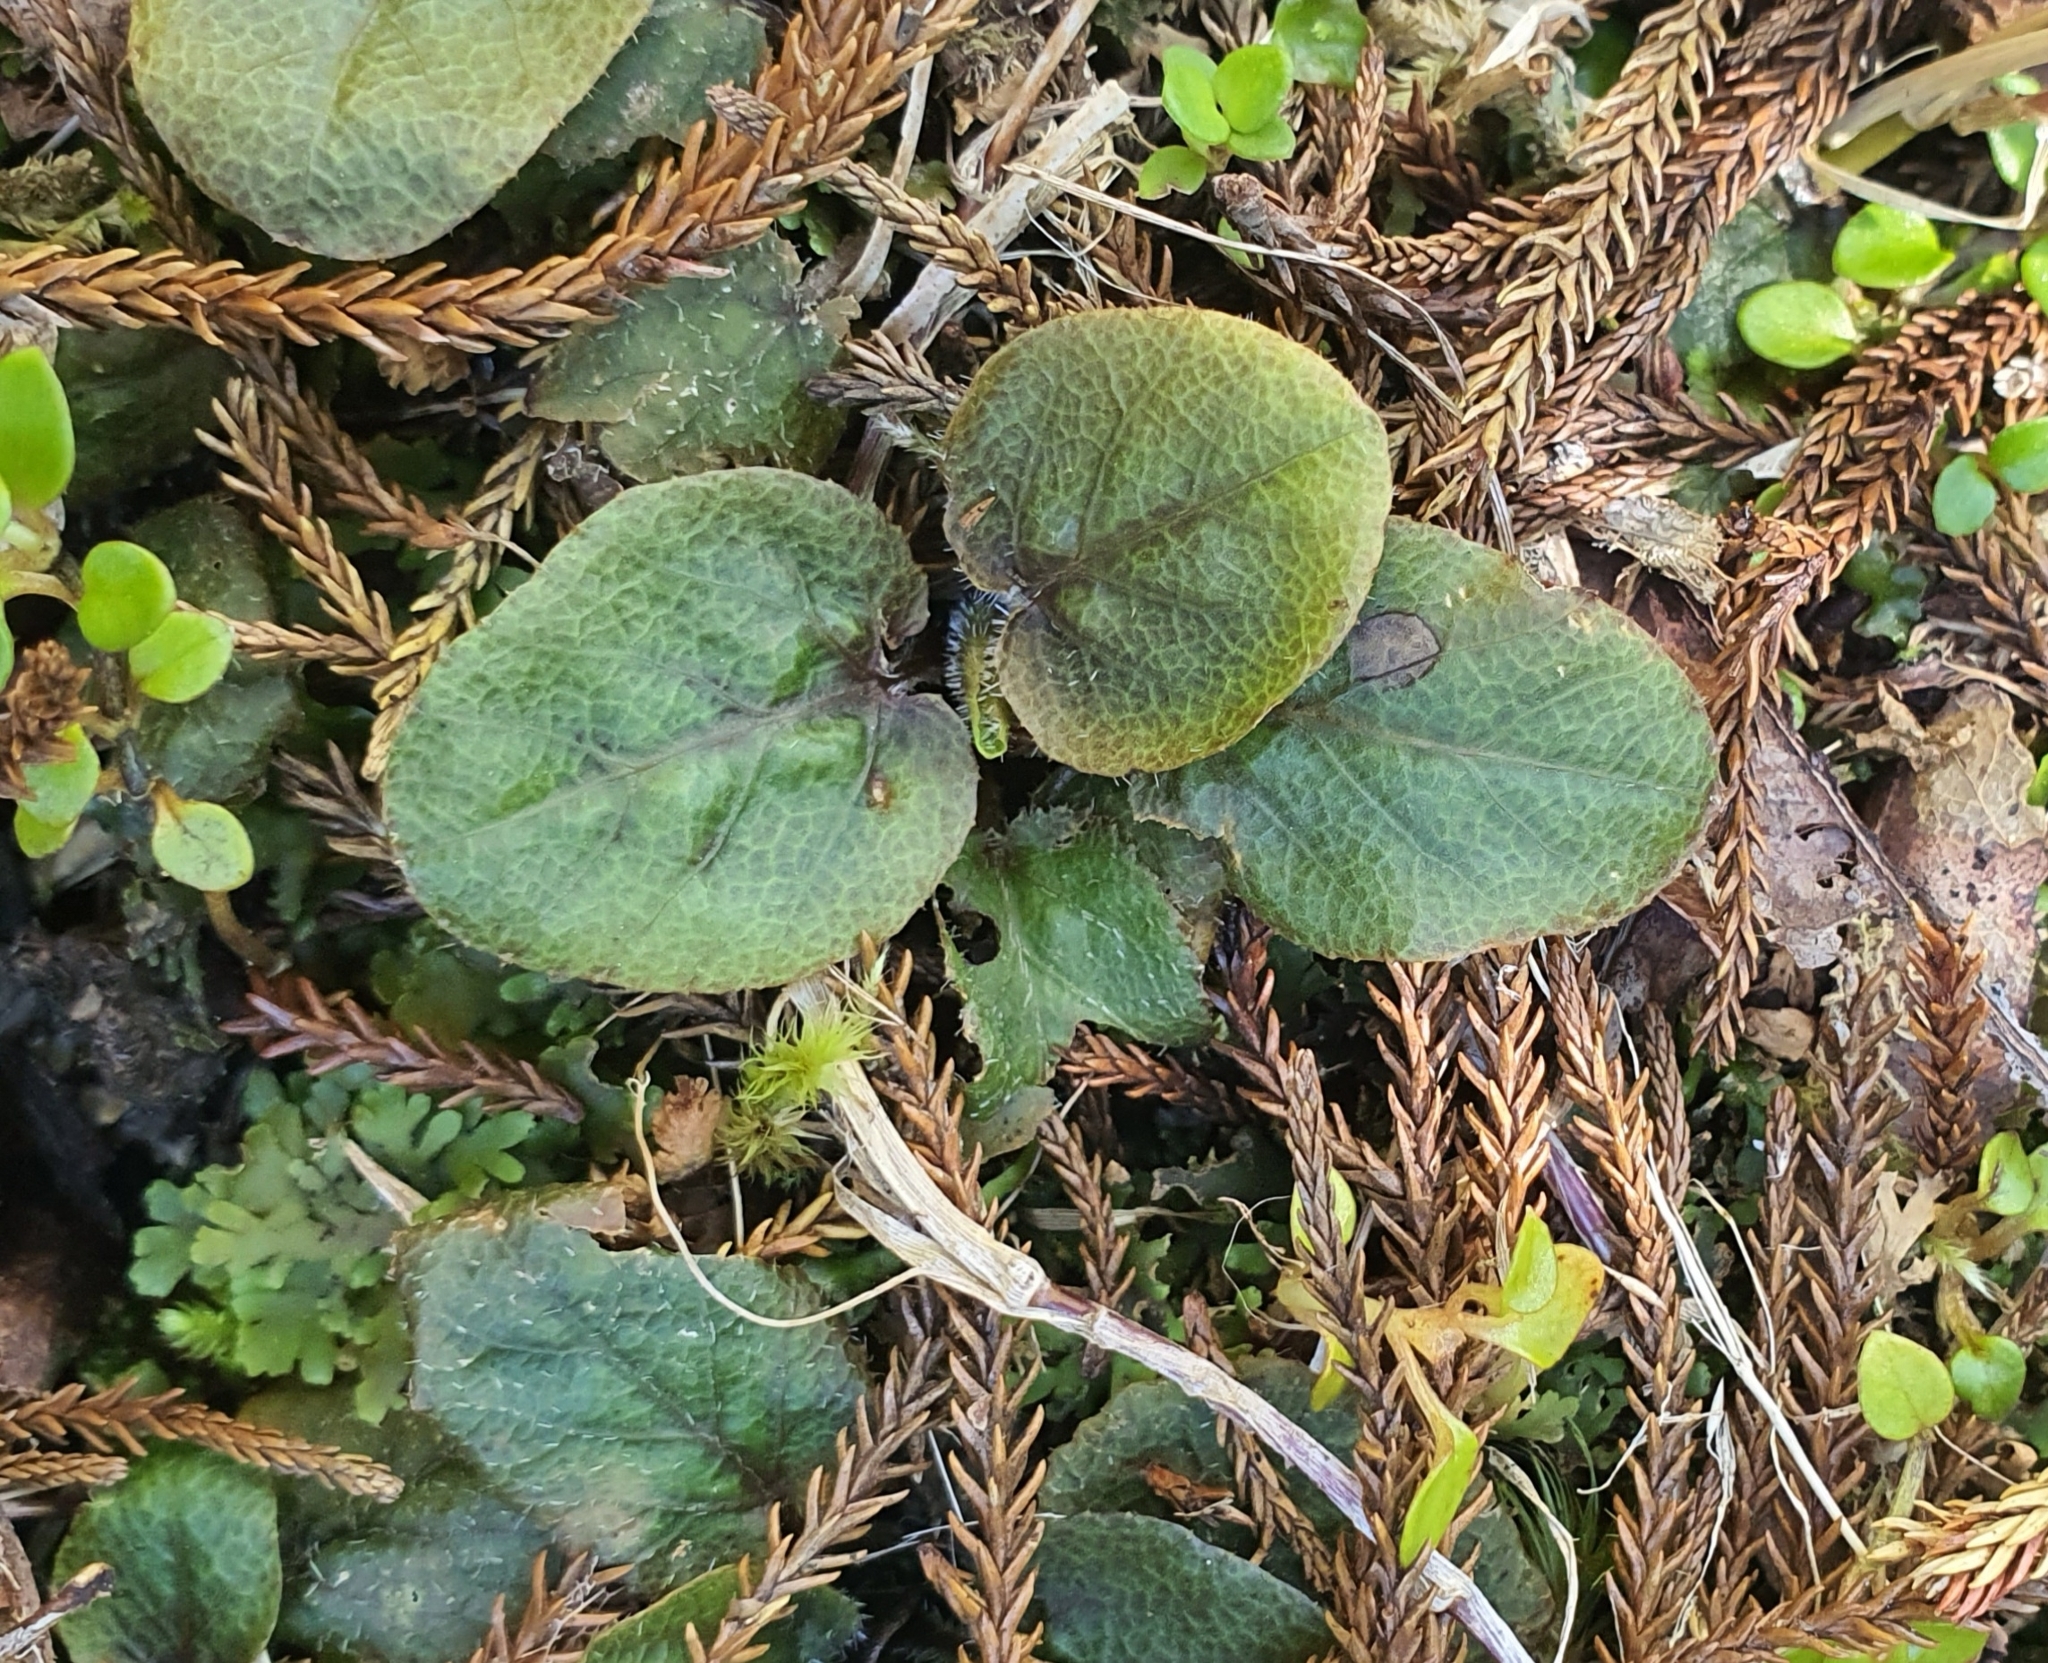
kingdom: Plantae
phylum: Tracheophyta
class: Magnoliopsida
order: Gunnerales
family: Gunneraceae
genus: Gunnera
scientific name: Gunnera prorepens
